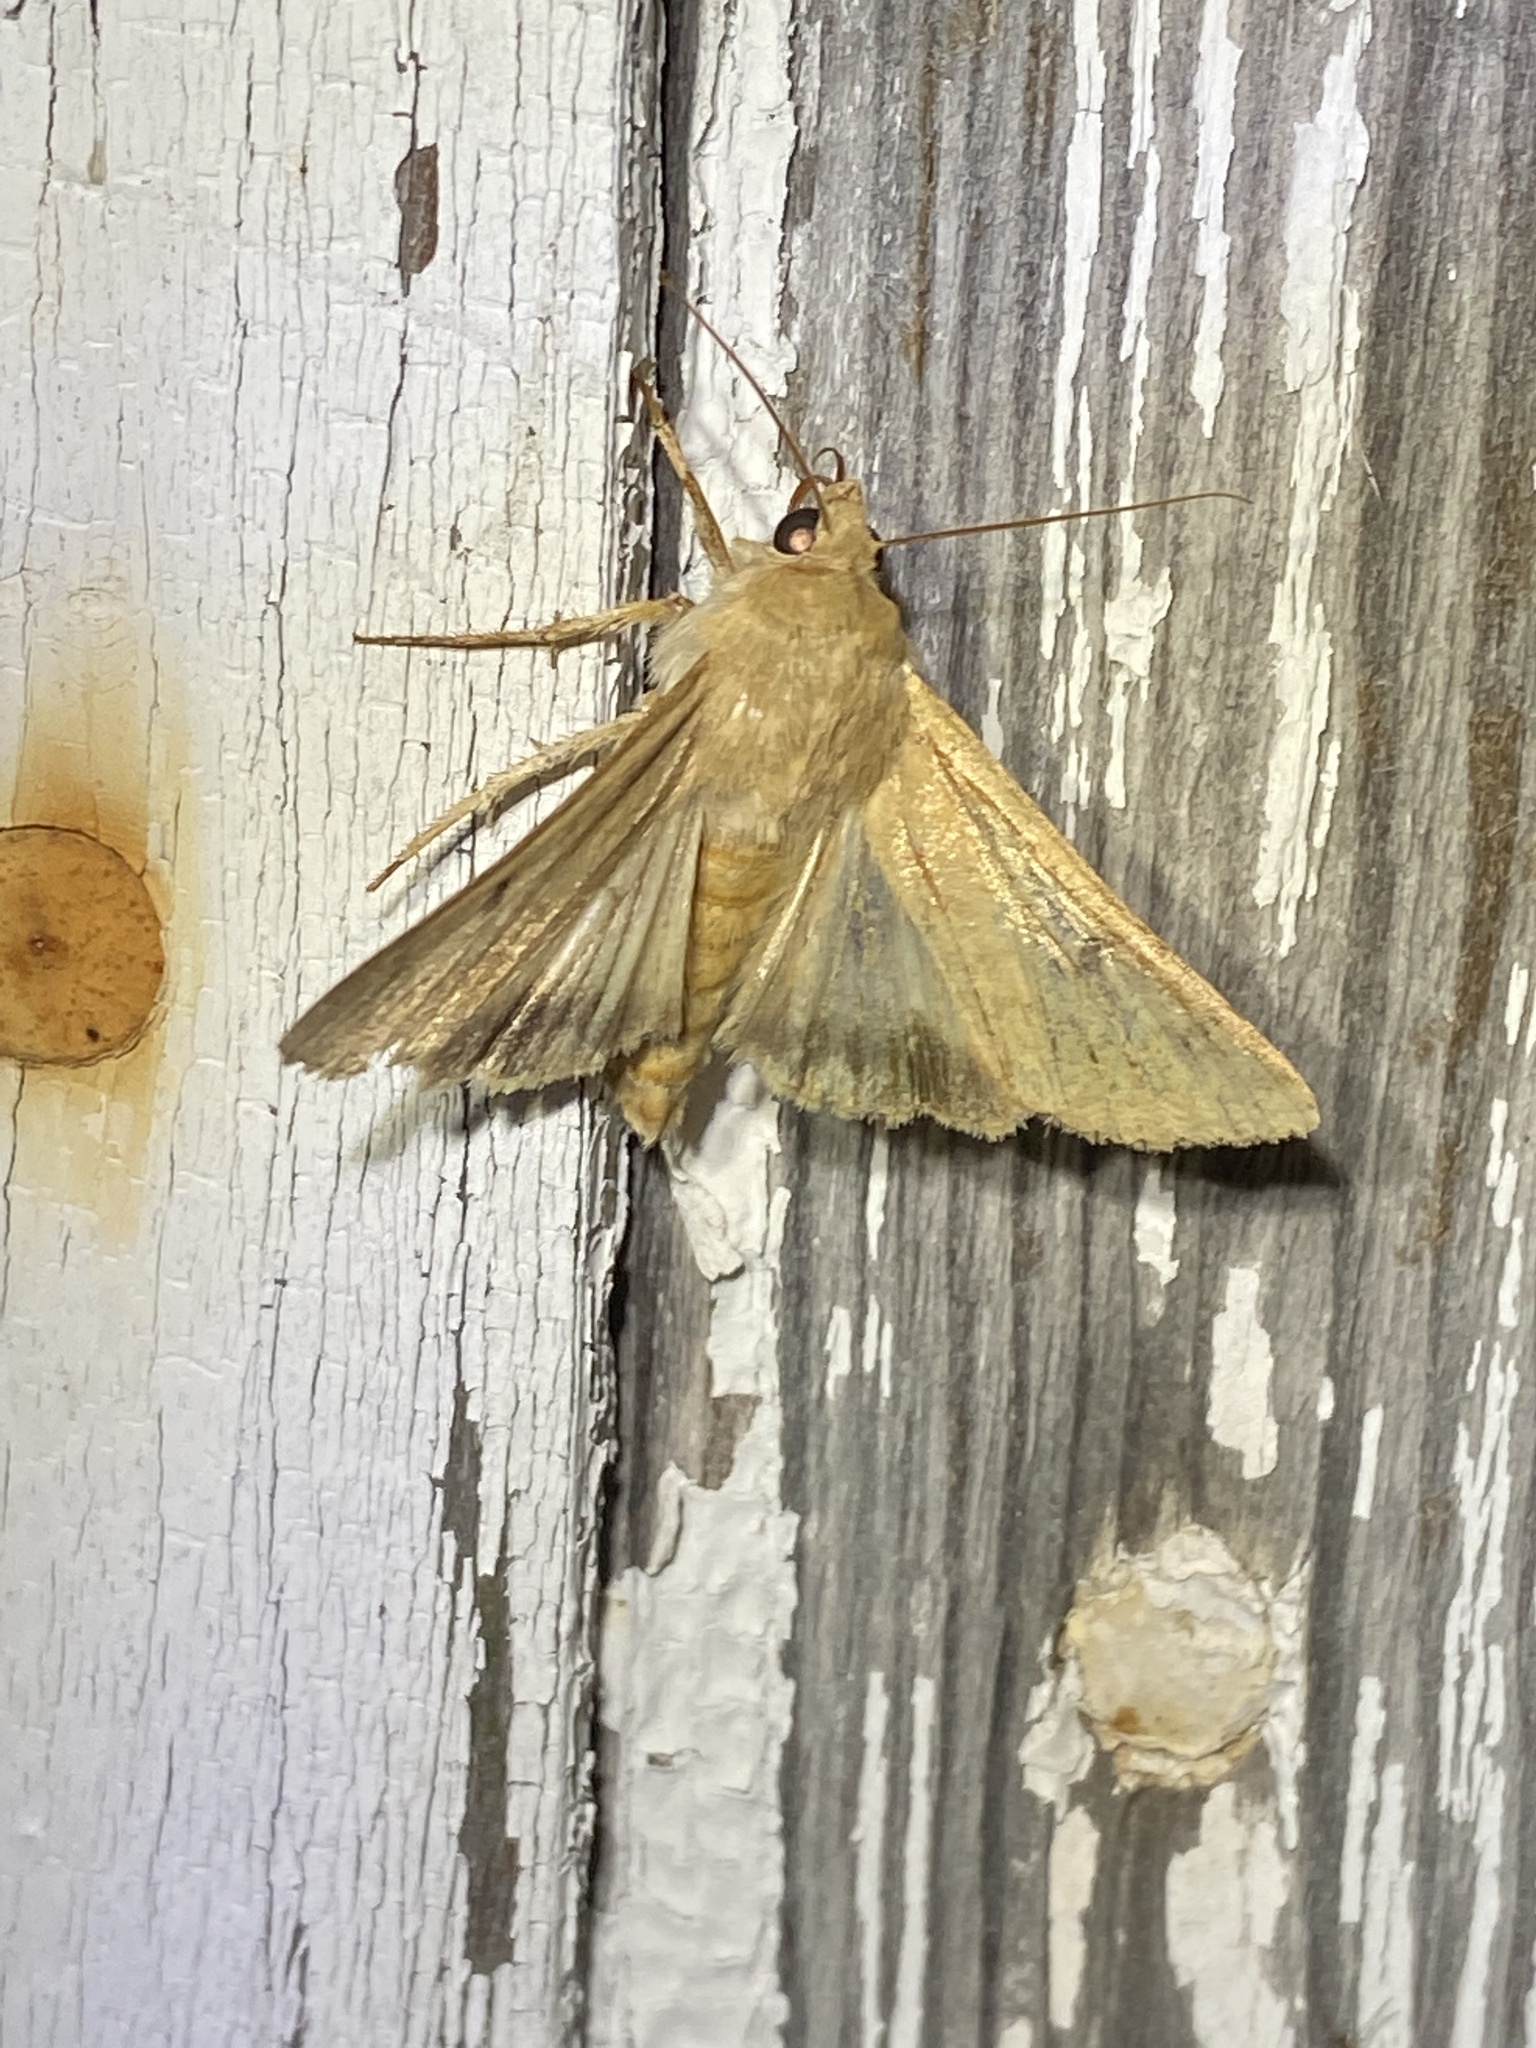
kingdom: Animalia
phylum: Arthropoda
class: Insecta
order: Lepidoptera
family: Noctuidae
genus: Helicoverpa
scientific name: Helicoverpa zea
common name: Bollworm
